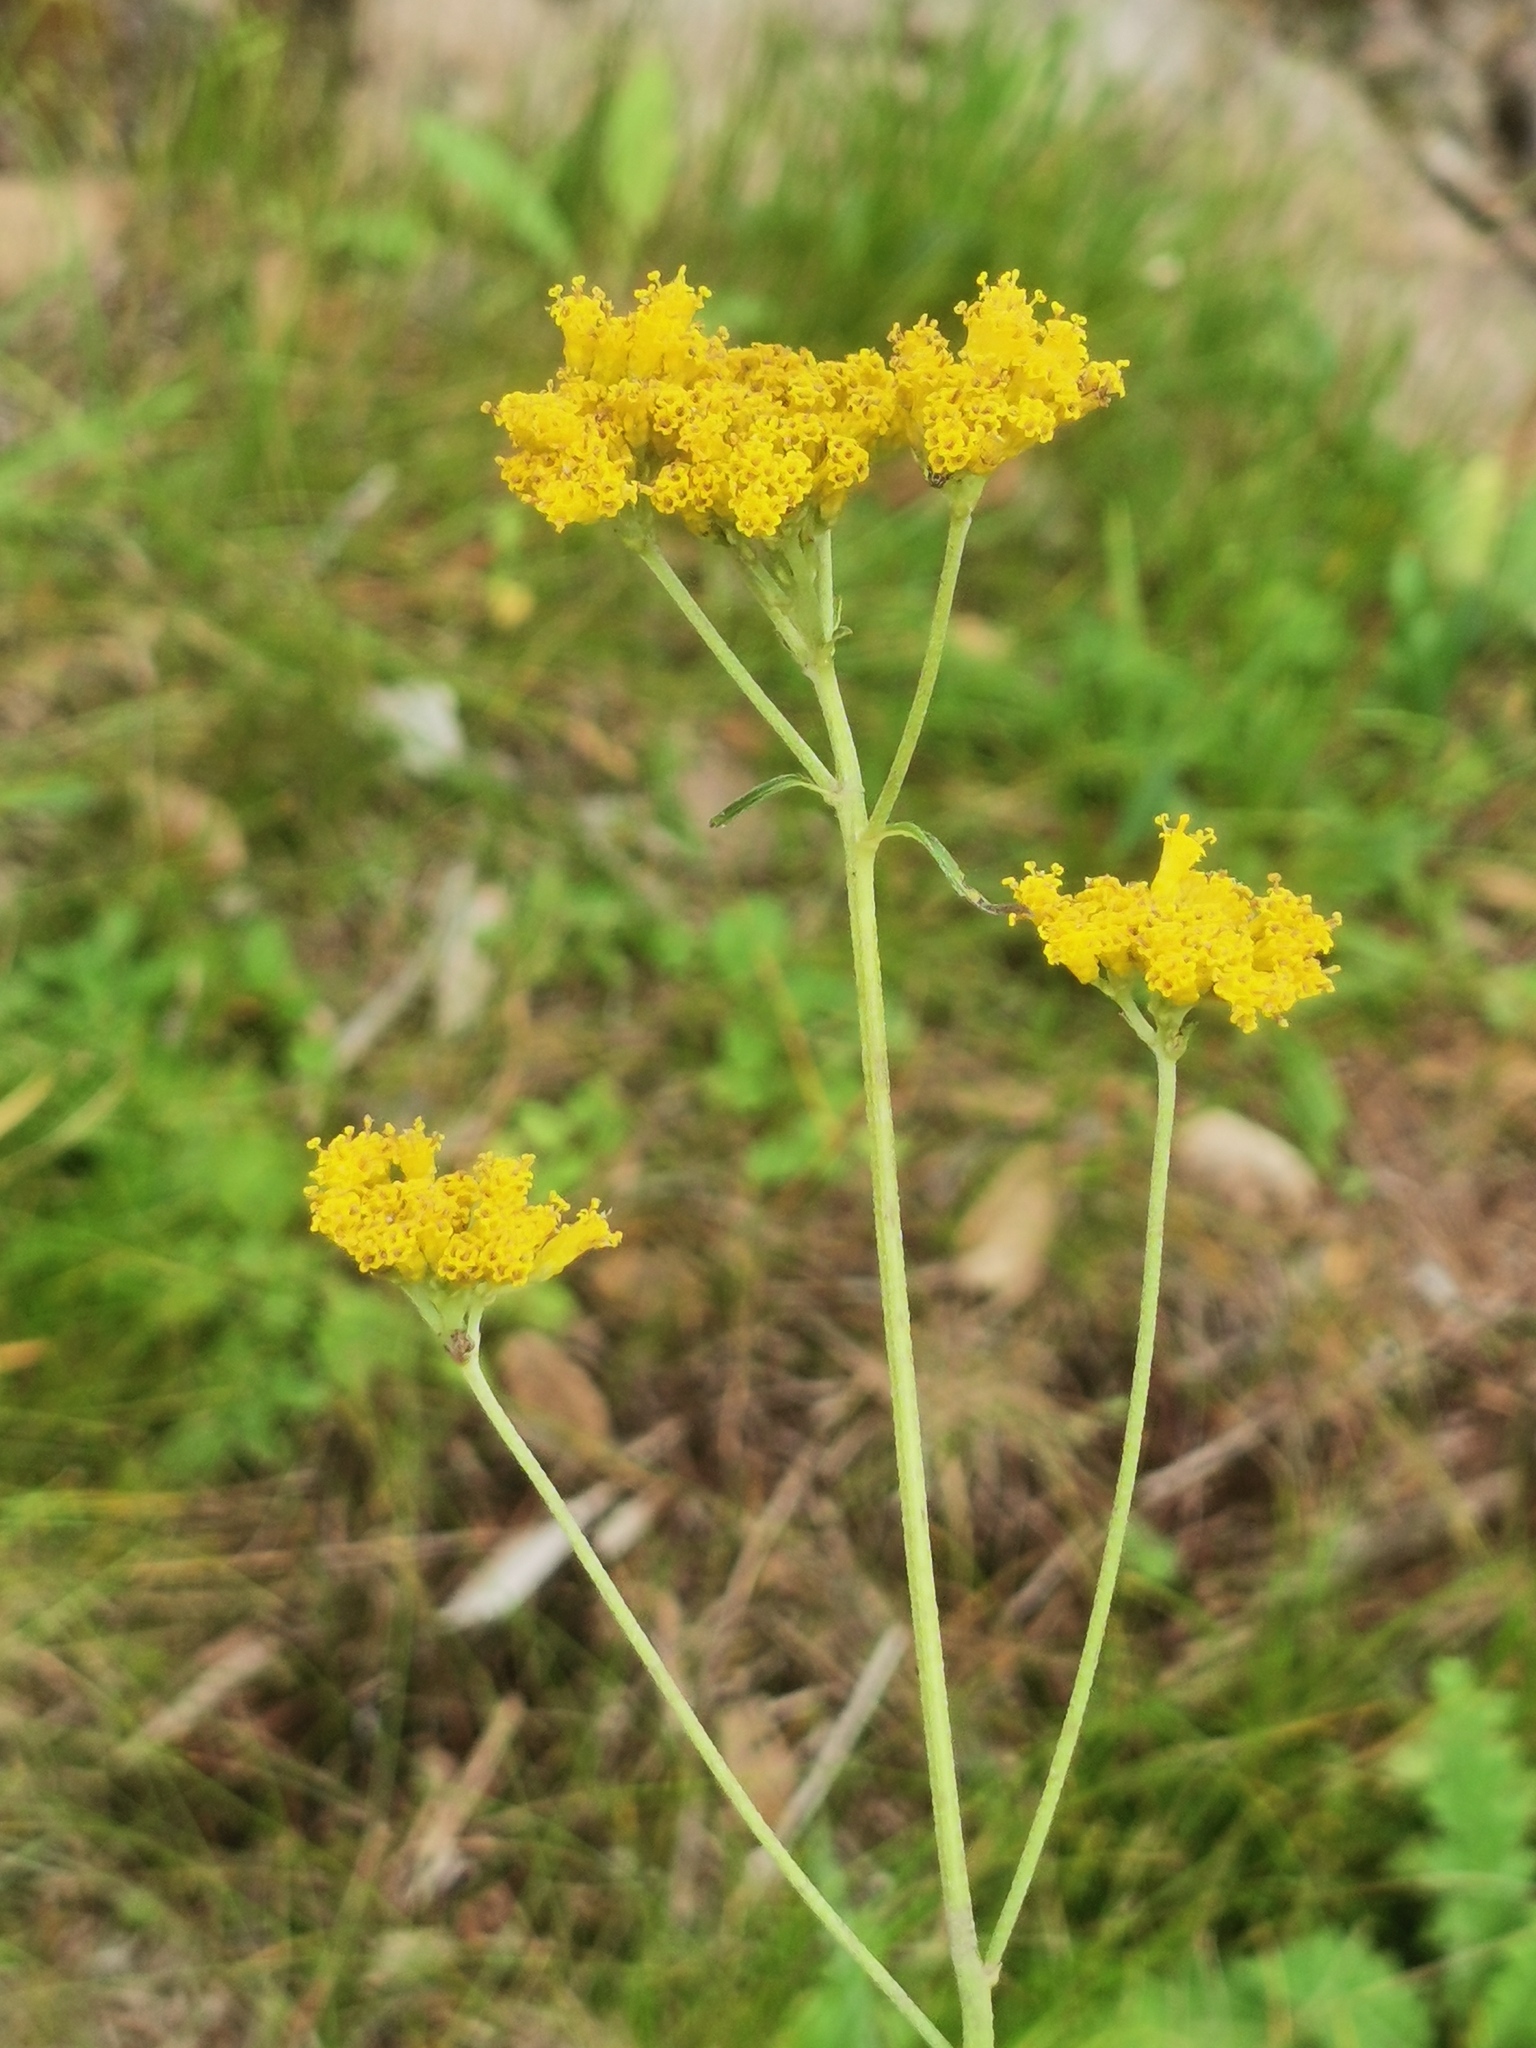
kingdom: Plantae
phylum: Tracheophyta
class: Magnoliopsida
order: Asterales
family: Asteraceae
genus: Alloispermum
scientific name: Alloispermum scabrum
